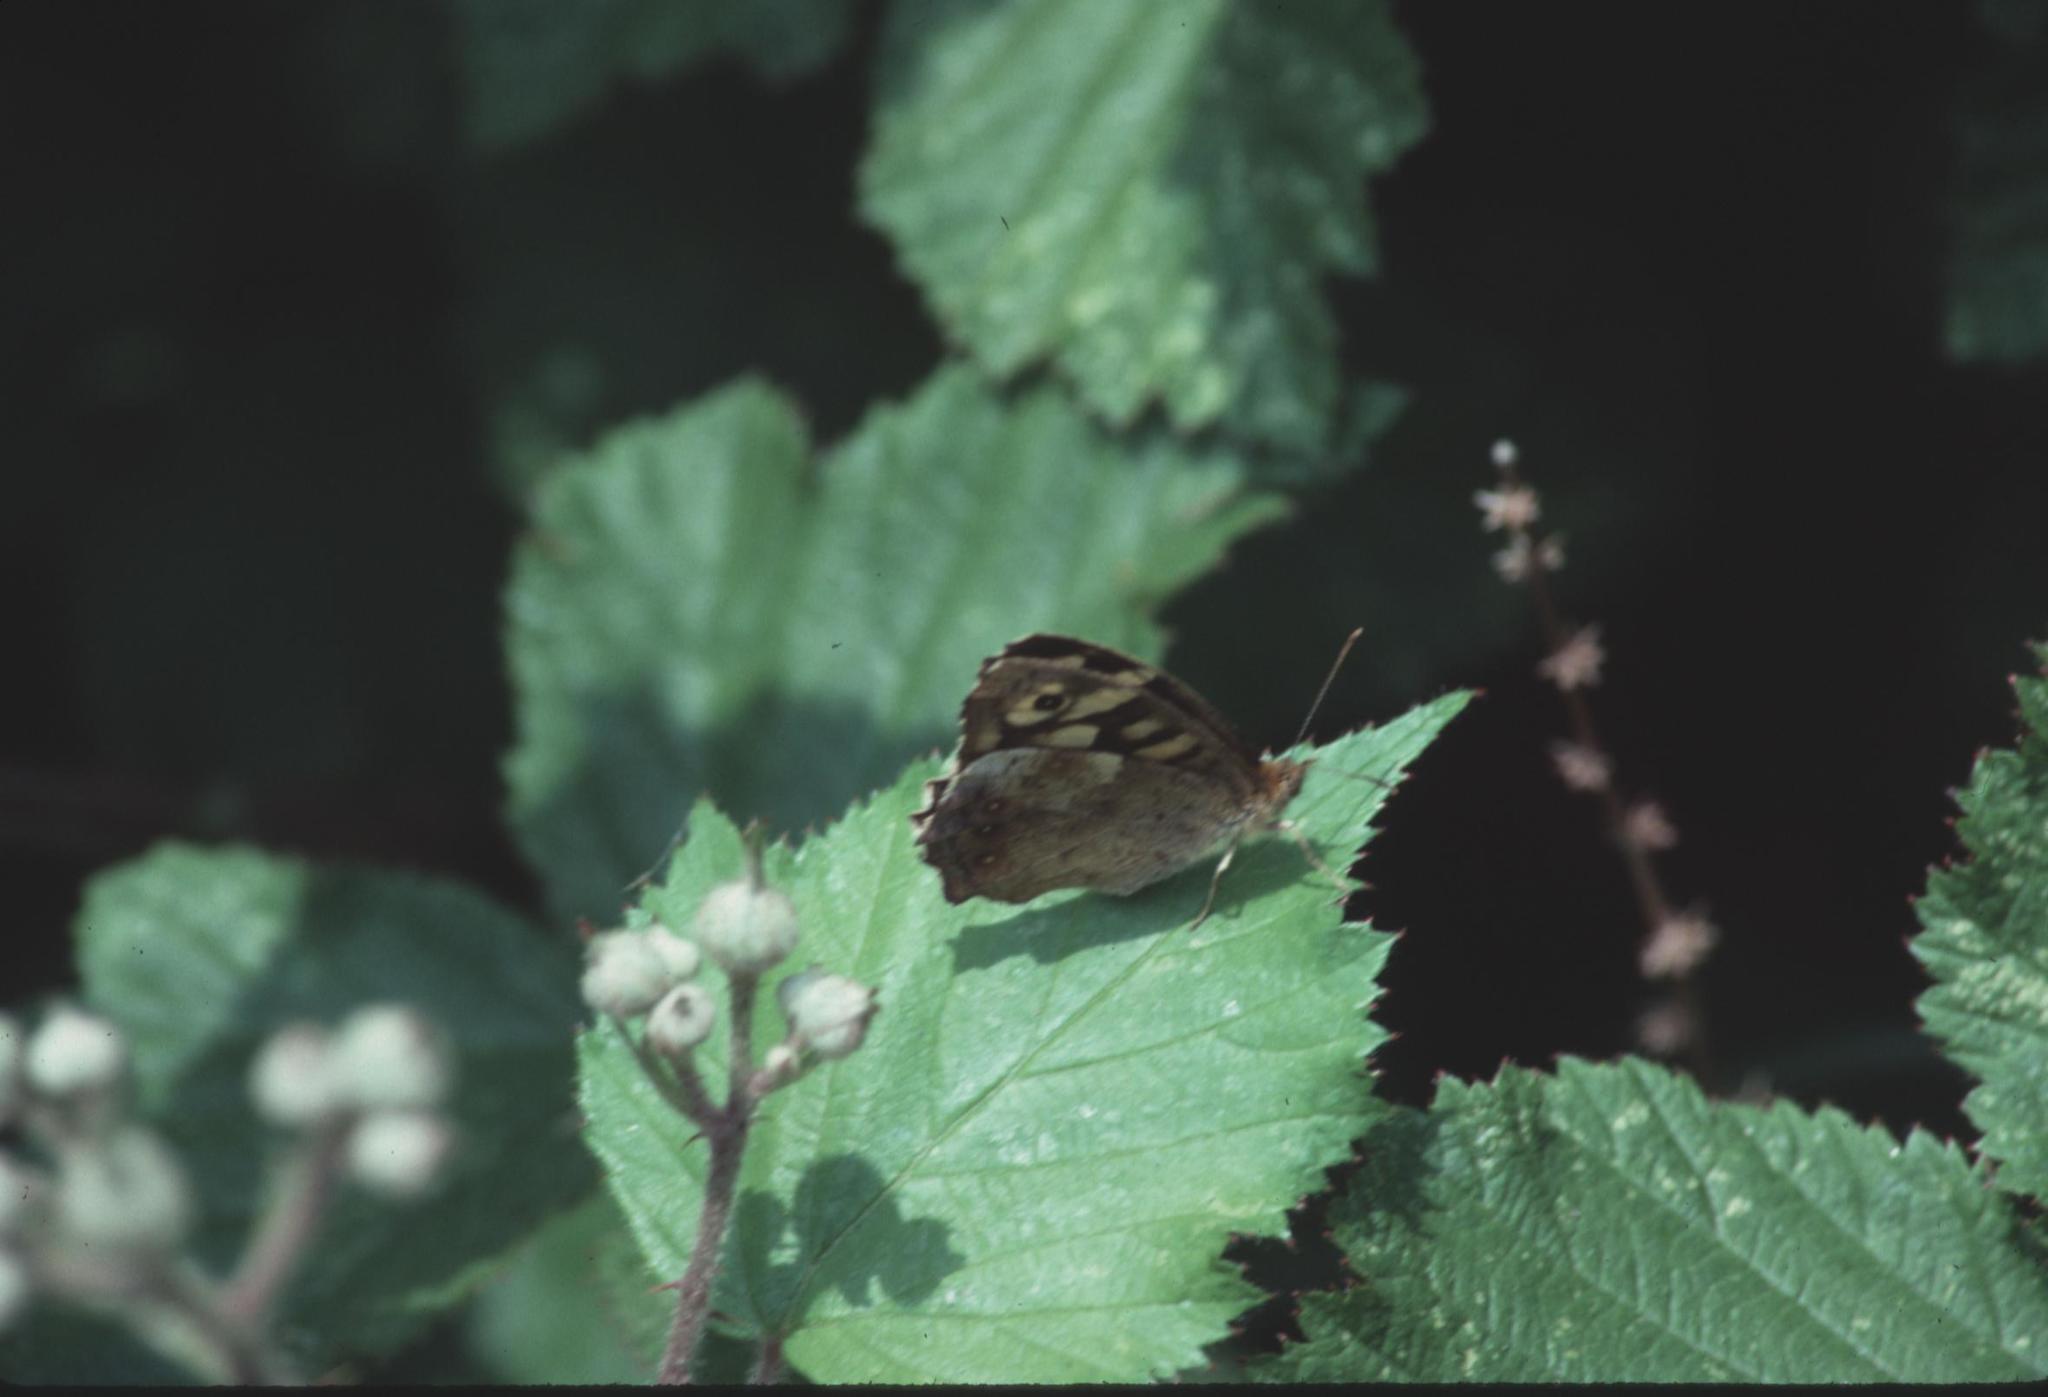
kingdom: Animalia
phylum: Arthropoda
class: Insecta
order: Lepidoptera
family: Nymphalidae
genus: Pararge
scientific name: Pararge aegeria
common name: Speckled wood
